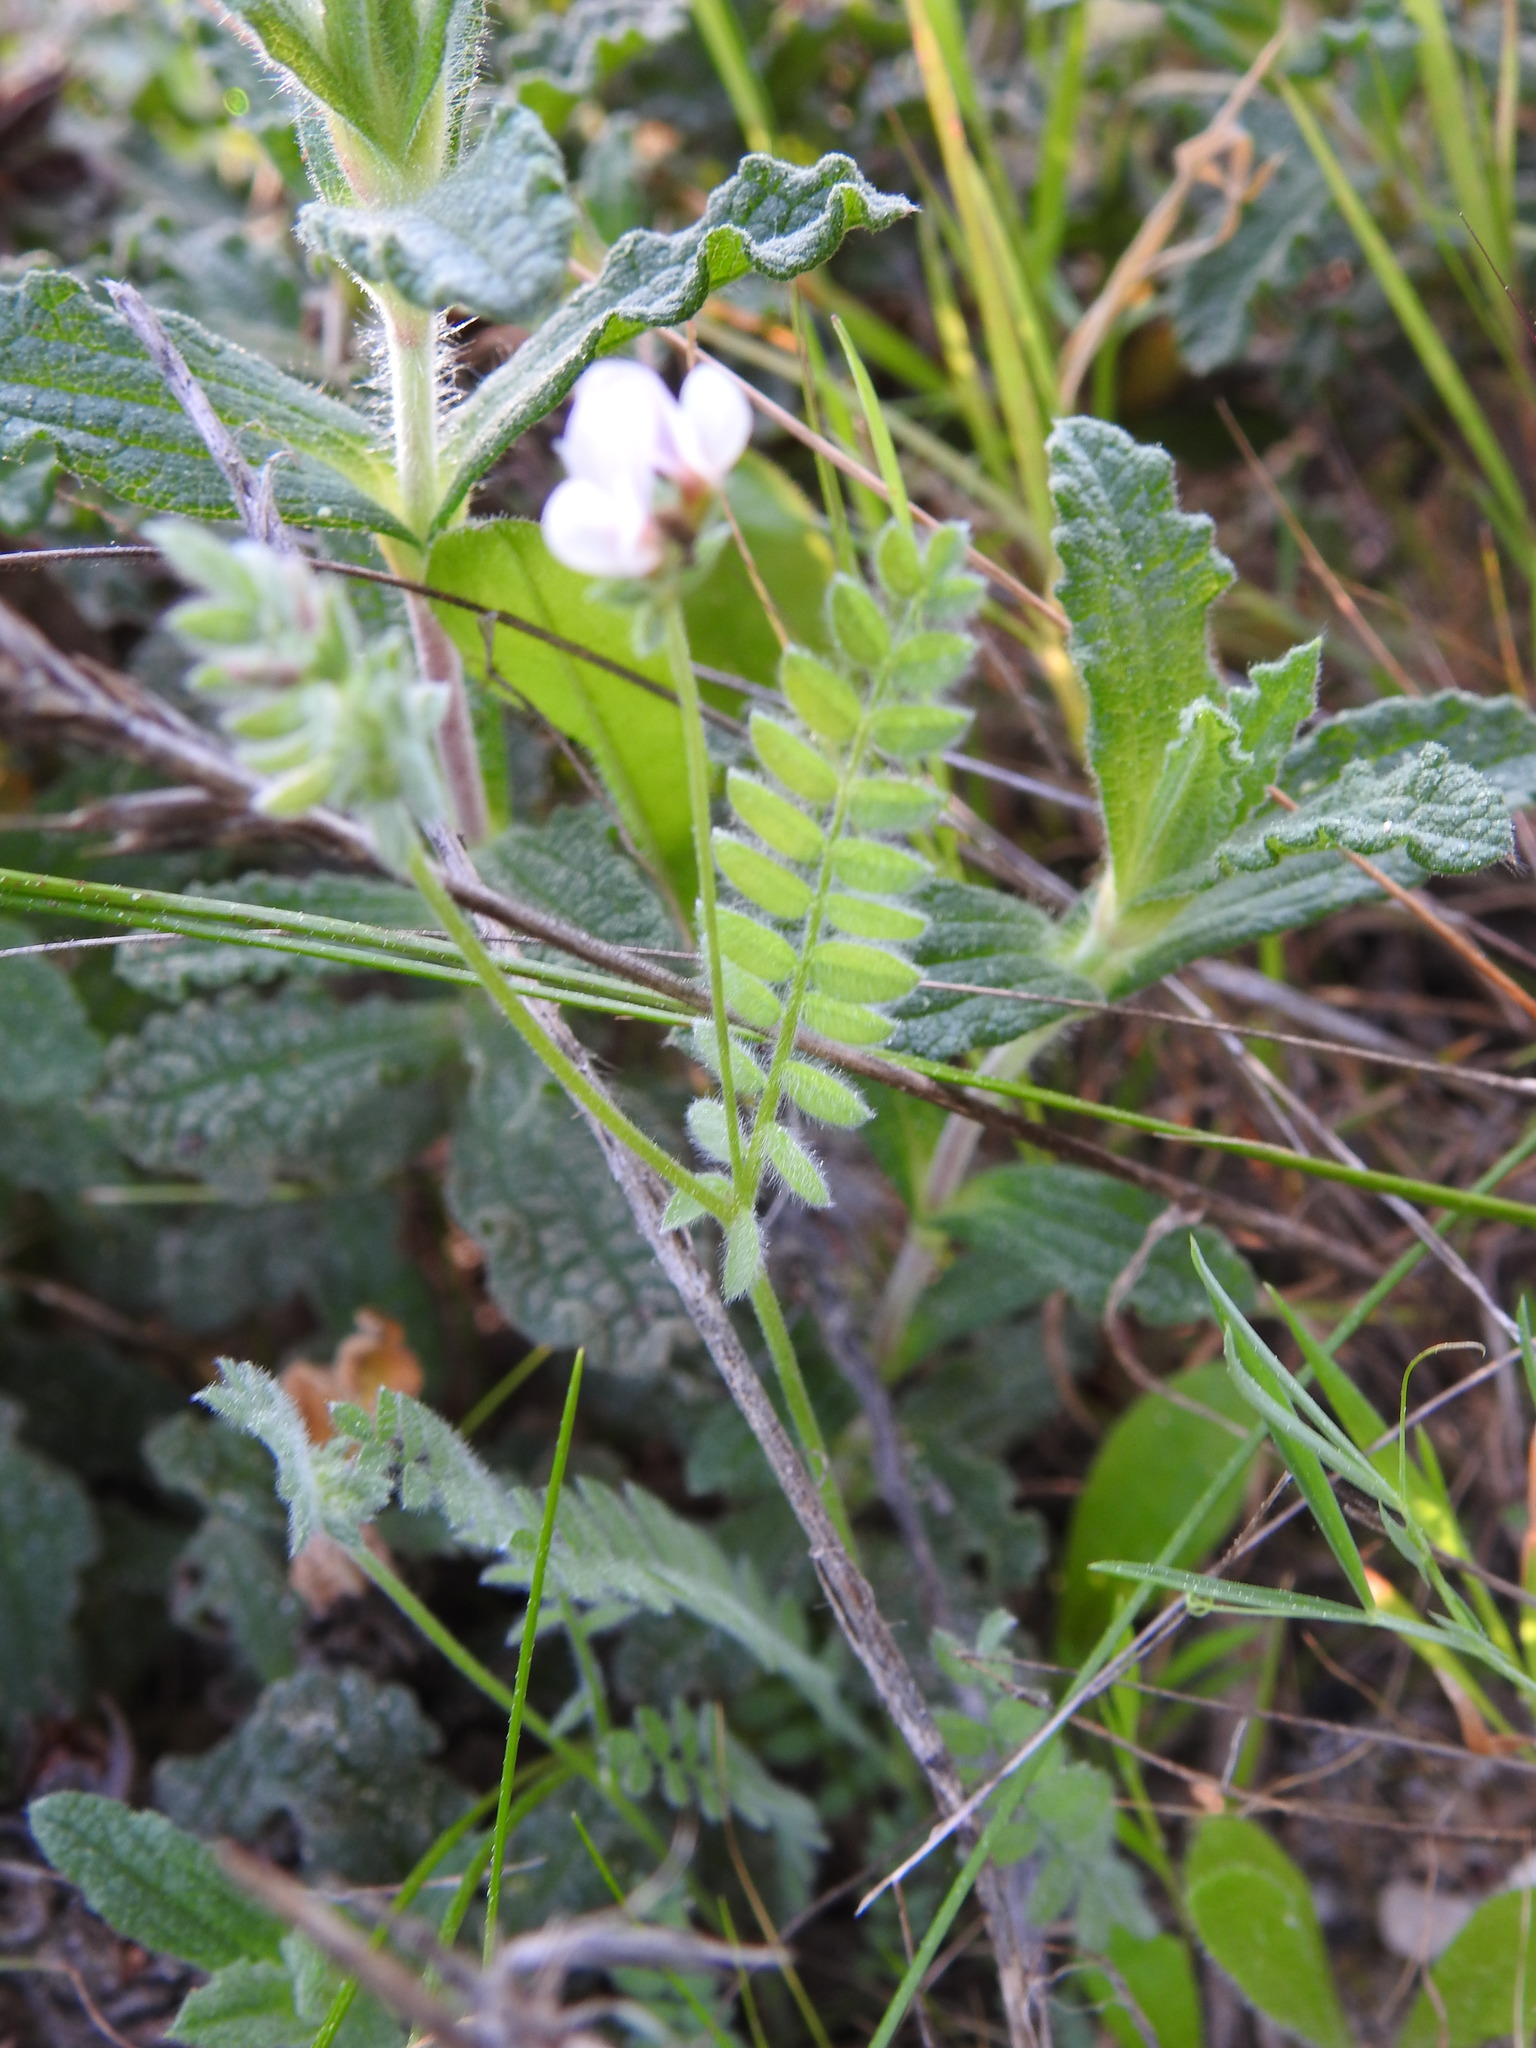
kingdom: Plantae
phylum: Tracheophyta
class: Magnoliopsida
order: Fabales
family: Fabaceae
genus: Ornithopus
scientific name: Ornithopus sativus
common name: Serradella
